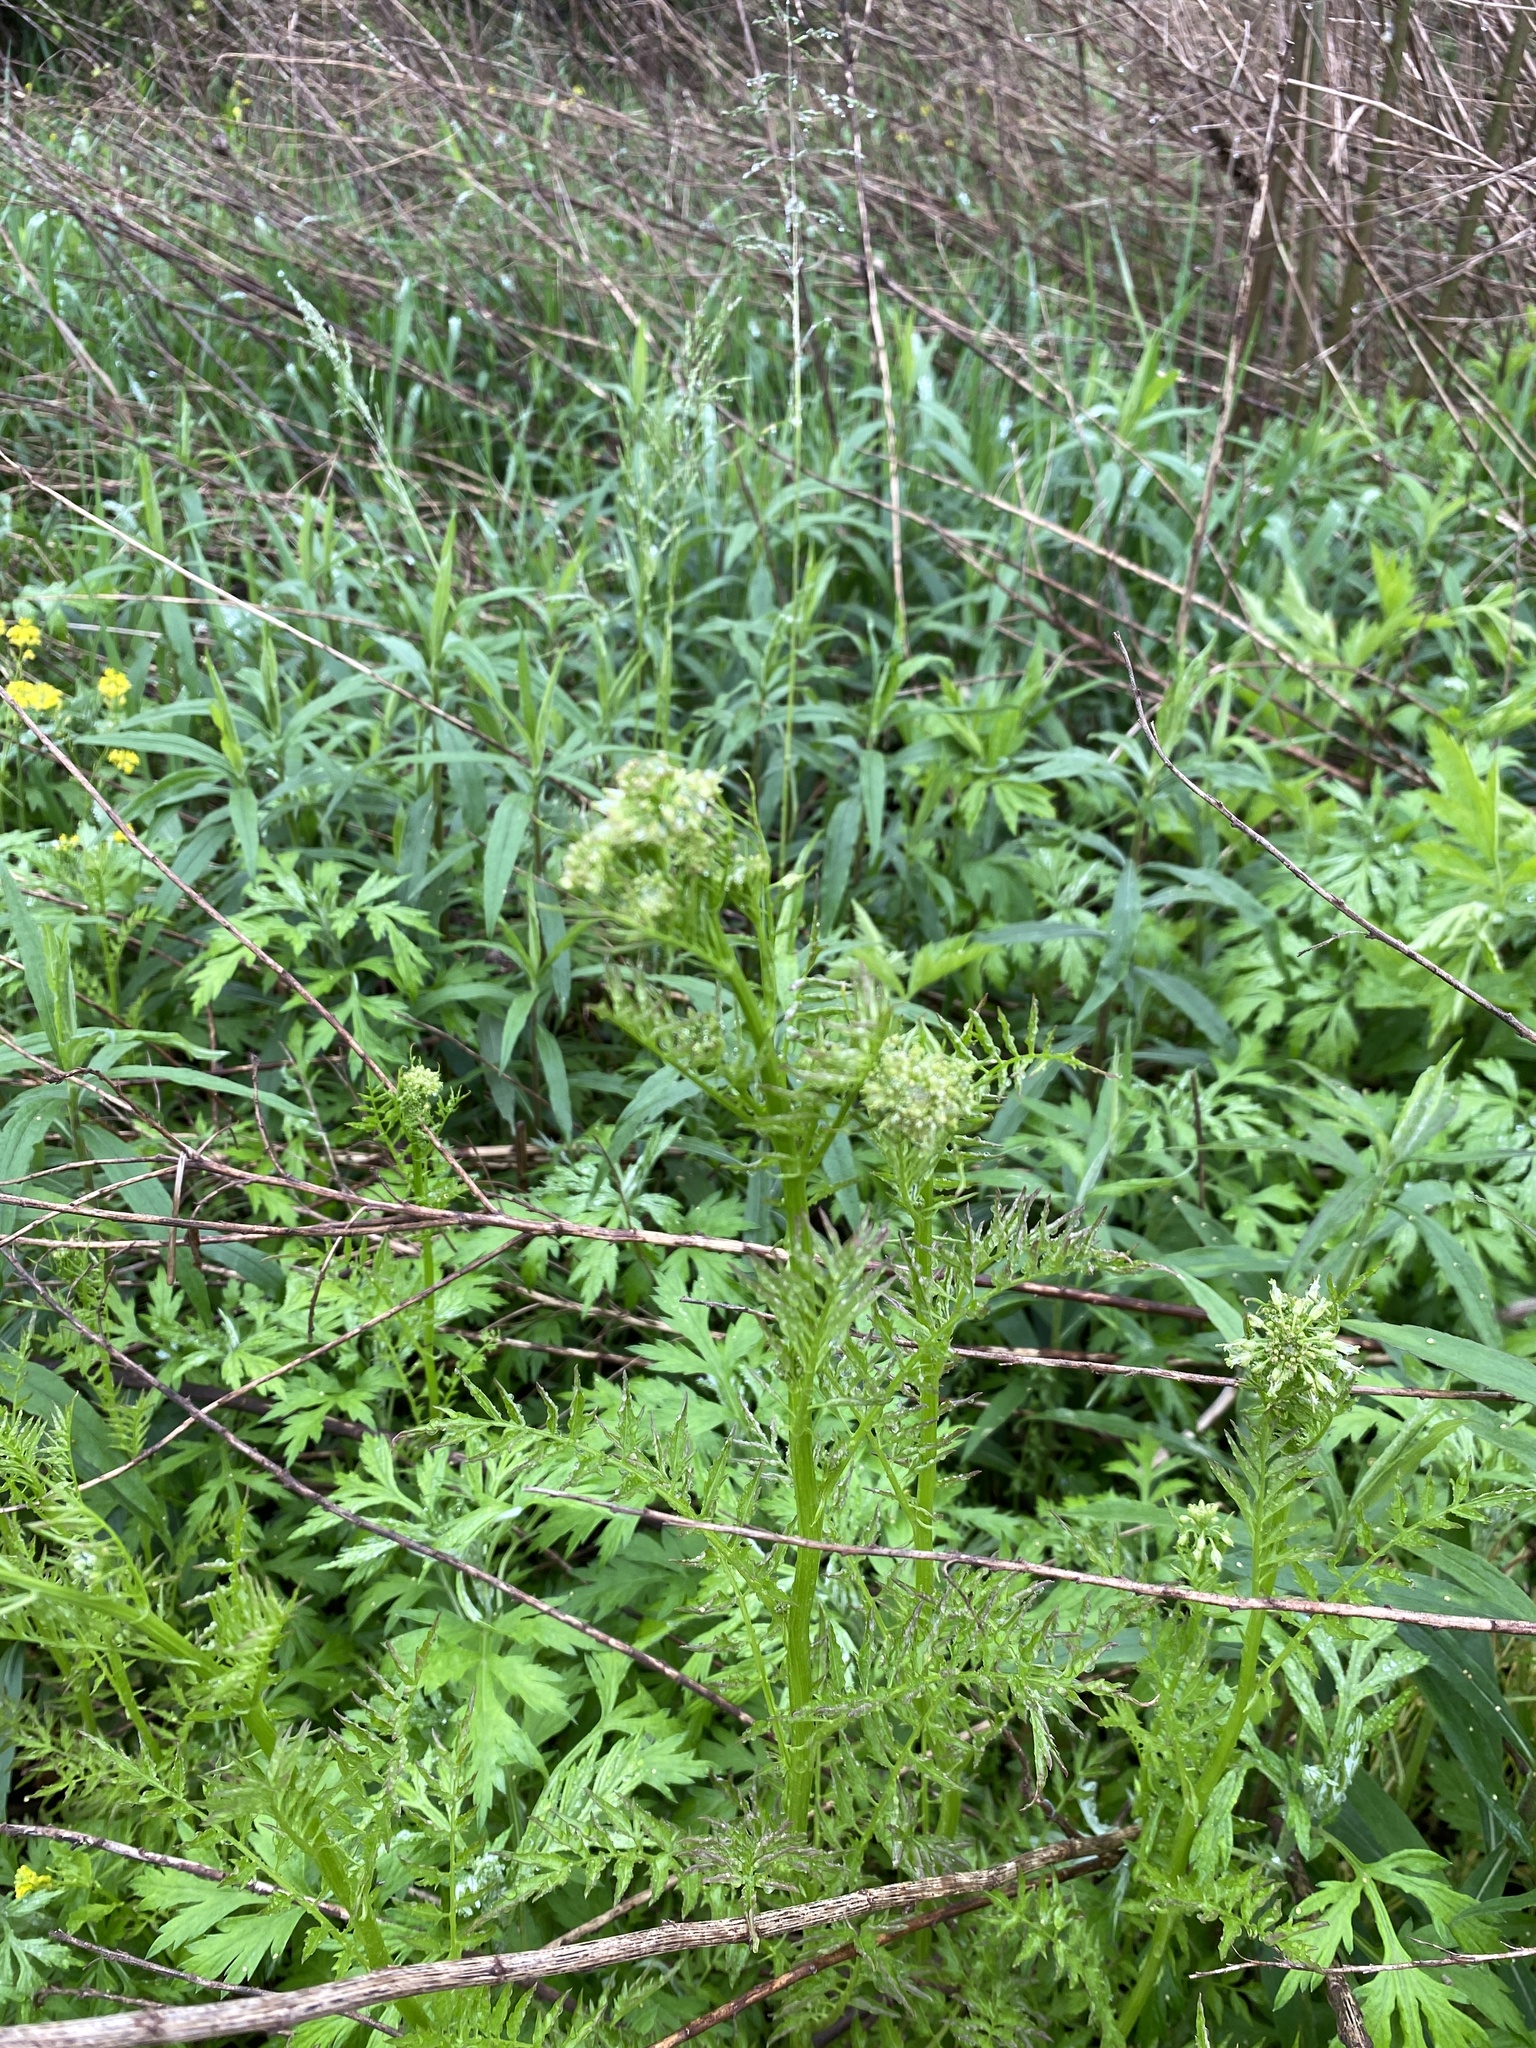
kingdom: Plantae
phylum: Tracheophyta
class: Magnoliopsida
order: Brassicales
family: Brassicaceae
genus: Cardamine
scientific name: Cardamine impatiens
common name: Narrow-leaved bitter-cress
